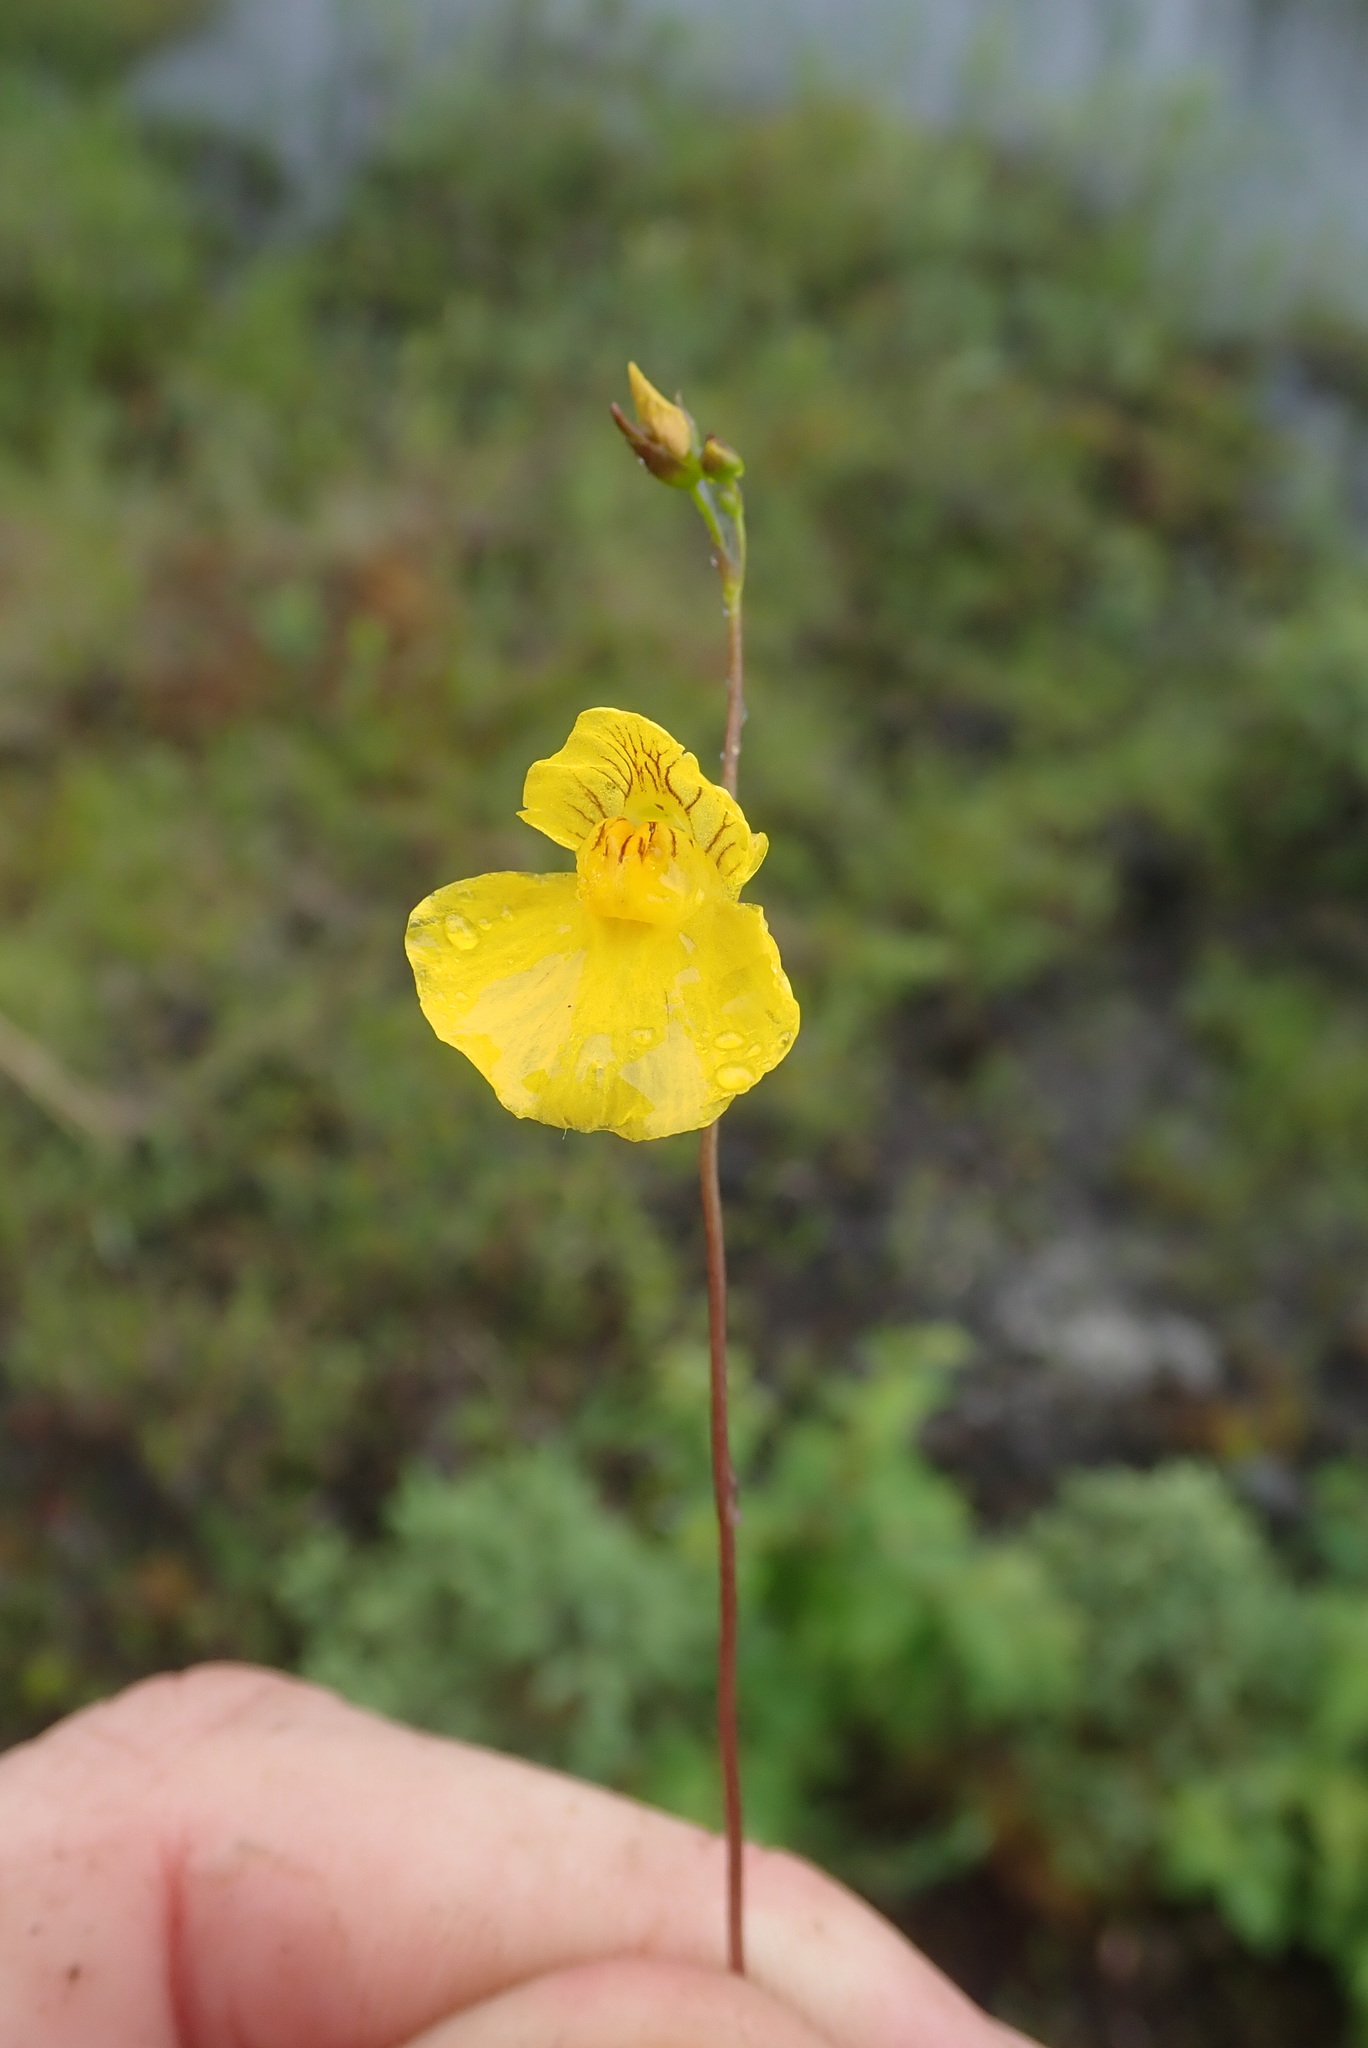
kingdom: Plantae
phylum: Tracheophyta
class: Magnoliopsida
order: Lamiales
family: Lentibulariaceae
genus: Utricularia
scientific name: Utricularia intermedia
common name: Intermediate bladderwort
